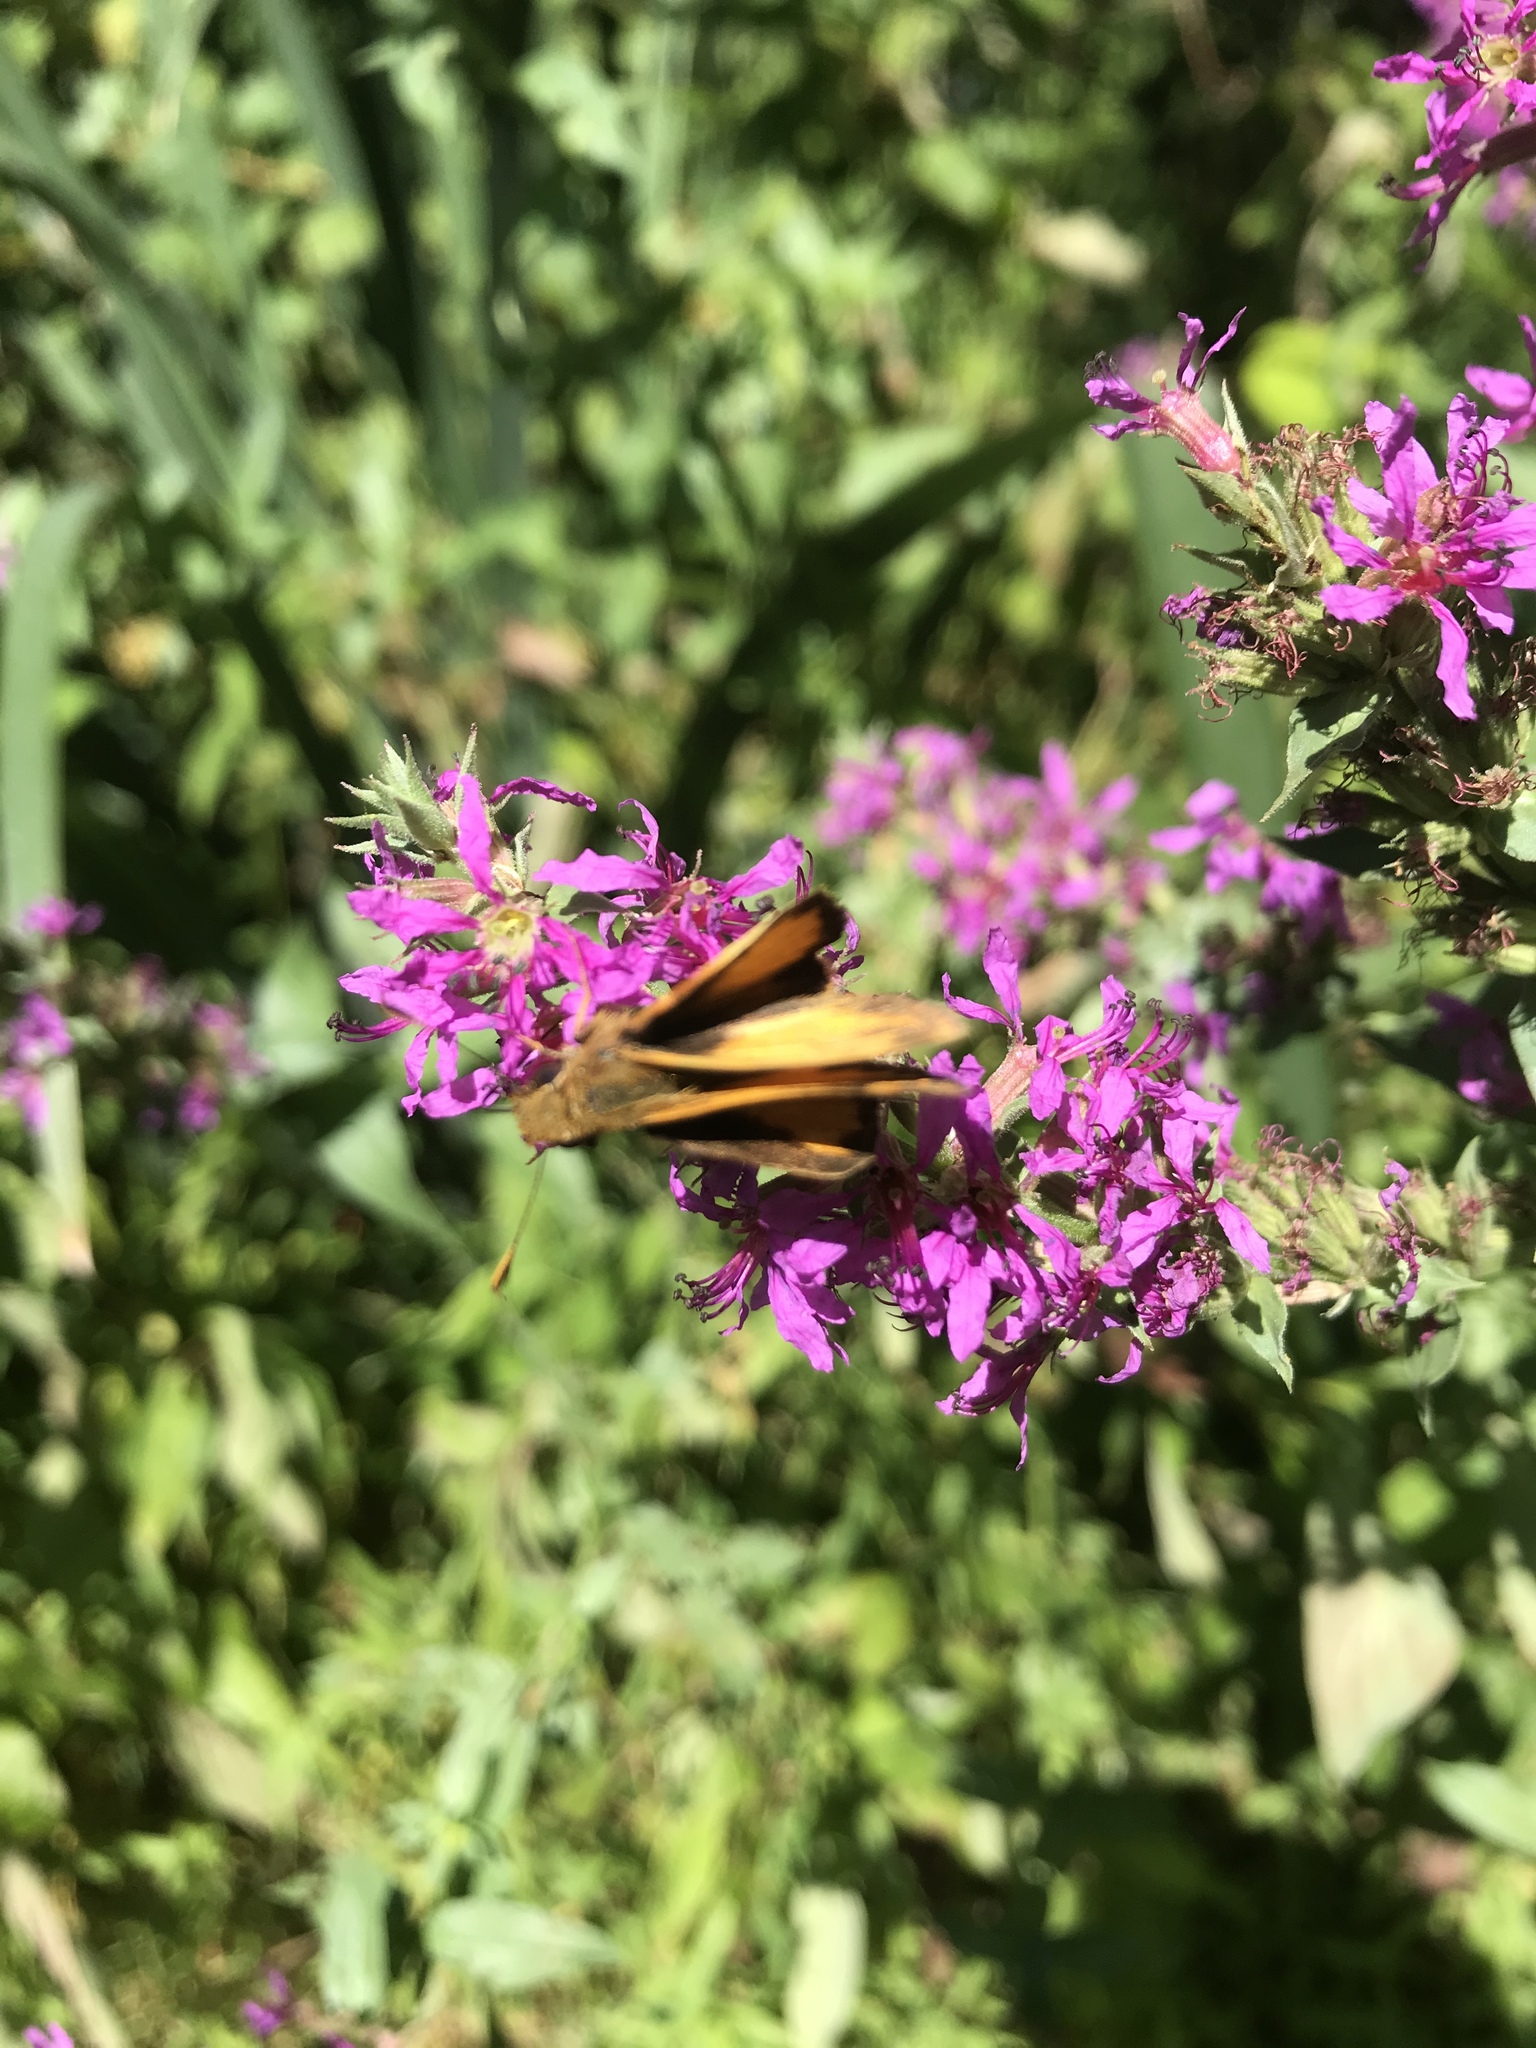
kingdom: Animalia
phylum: Arthropoda
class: Insecta
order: Lepidoptera
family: Hesperiidae
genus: Lon
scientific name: Lon zabulon
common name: Zabulon skipper
